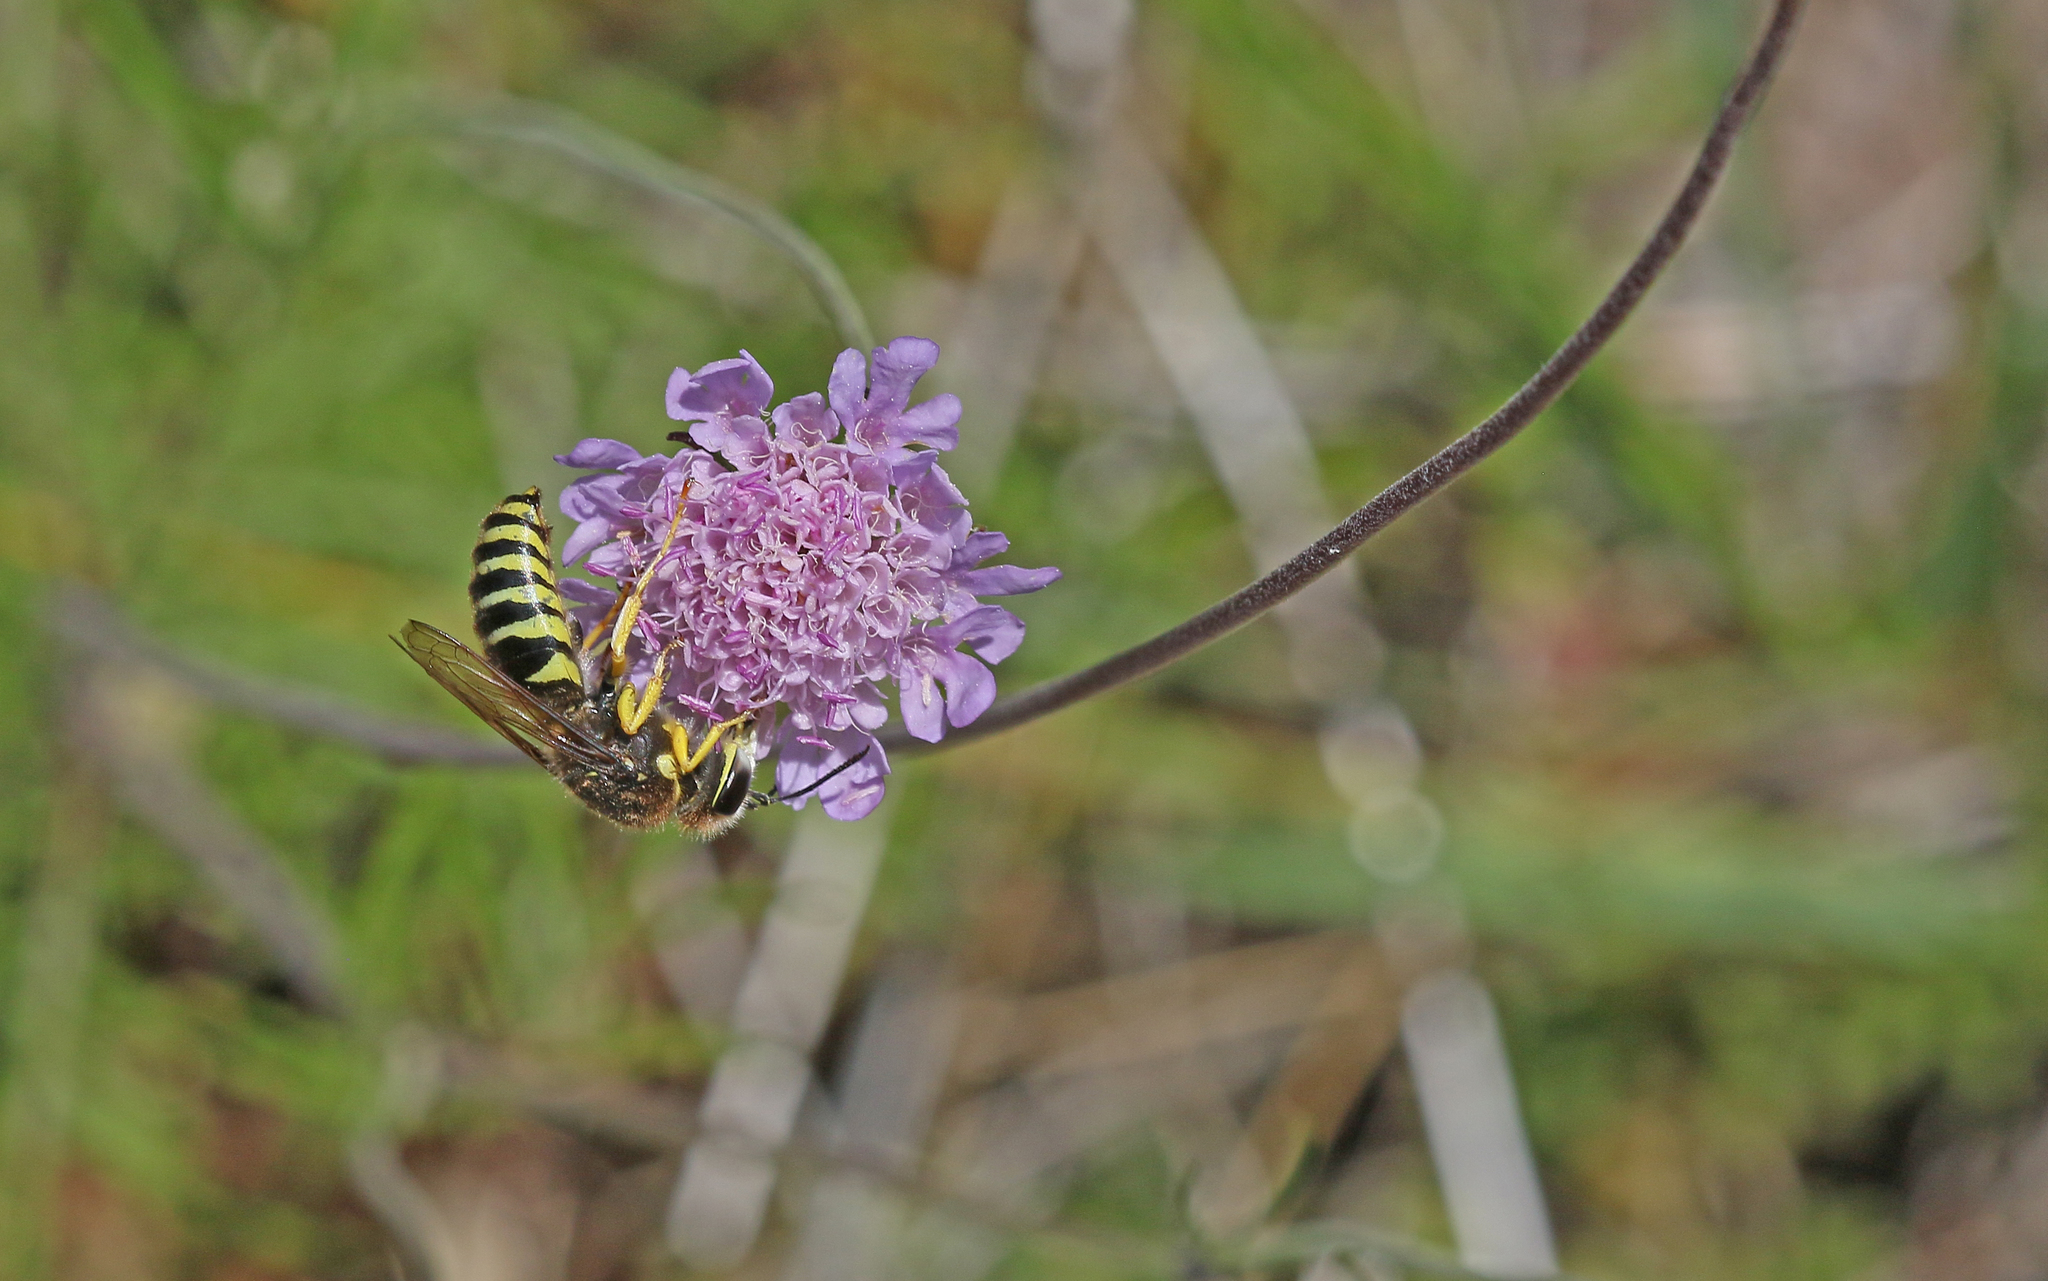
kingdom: Animalia
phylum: Arthropoda
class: Insecta
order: Hymenoptera
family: Crabronidae
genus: Bembix
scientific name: Bembix tarsata
